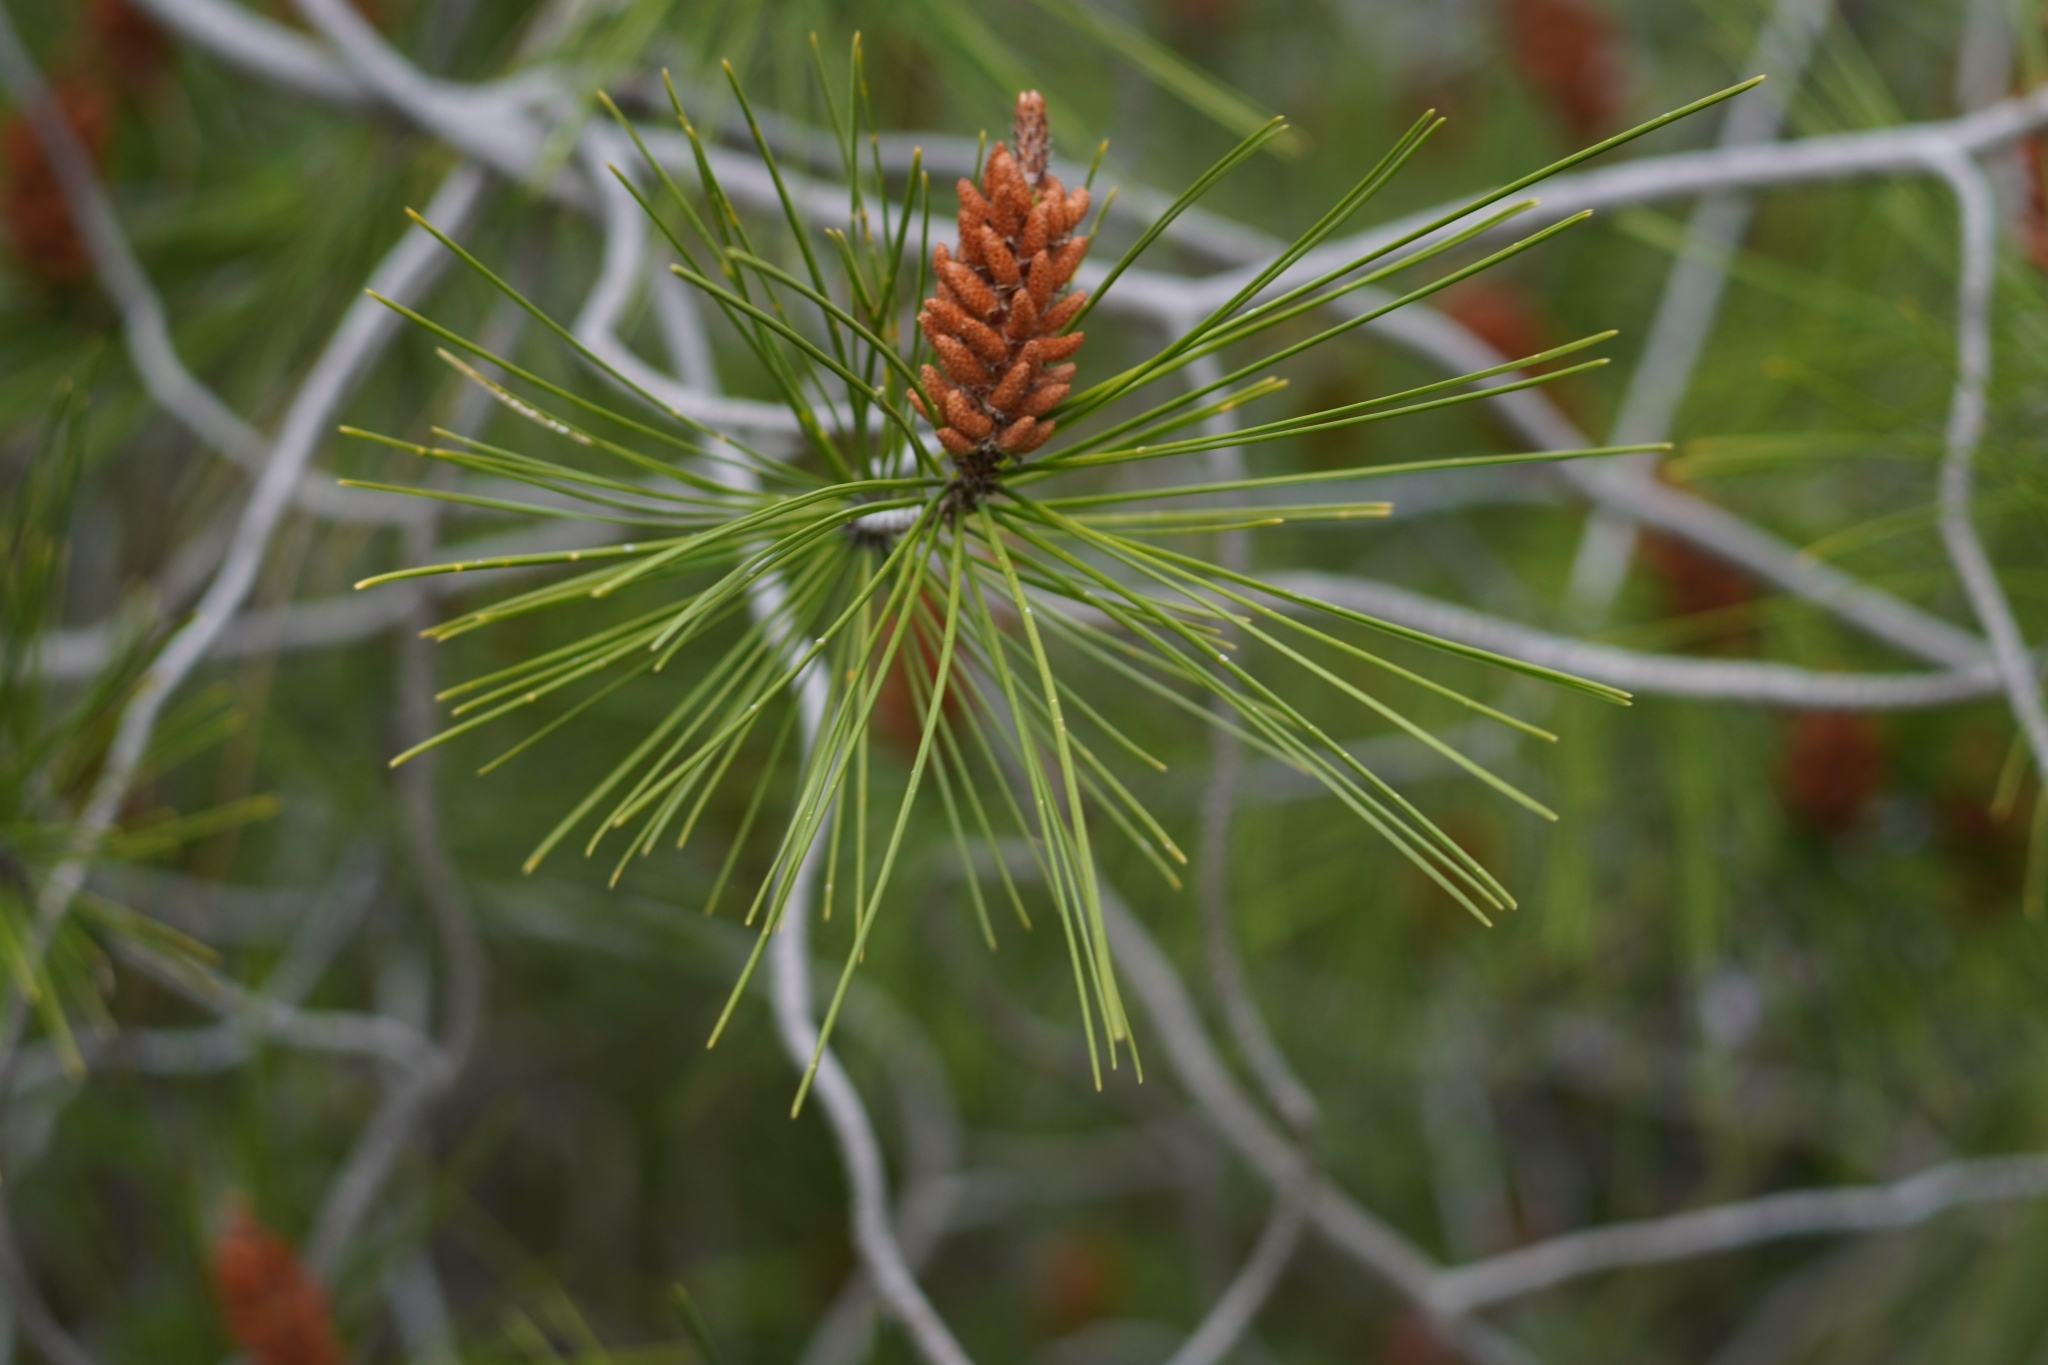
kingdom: Plantae
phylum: Tracheophyta
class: Pinopsida
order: Pinales
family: Pinaceae
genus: Pinus
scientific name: Pinus halepensis
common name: Aleppo pine
